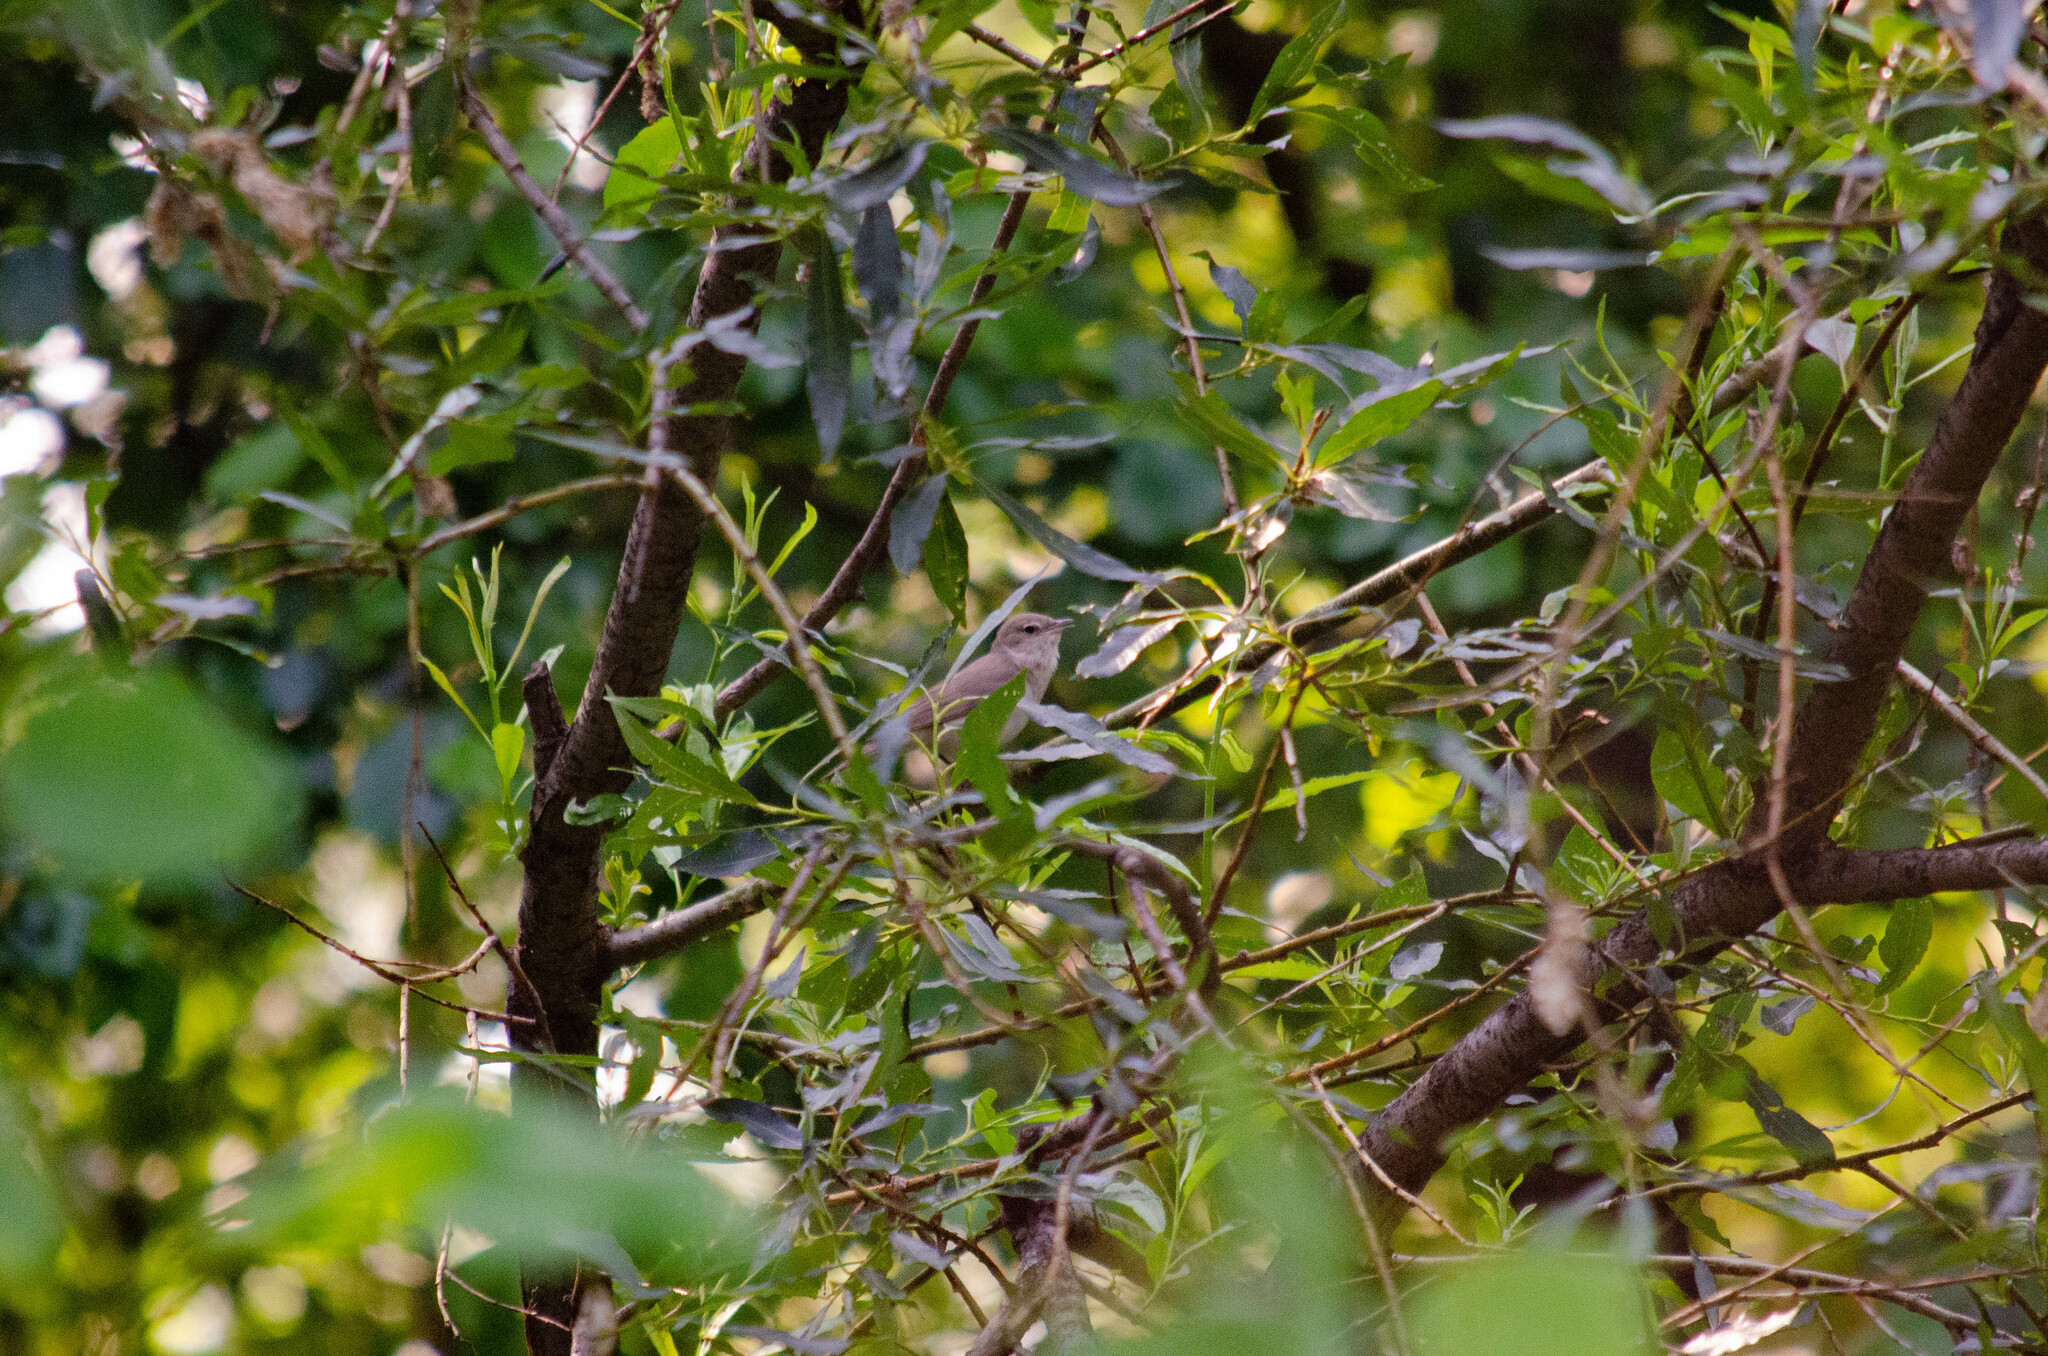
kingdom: Animalia
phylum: Chordata
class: Aves
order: Passeriformes
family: Sylviidae
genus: Sylvia
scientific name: Sylvia borin
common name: Garden warbler
